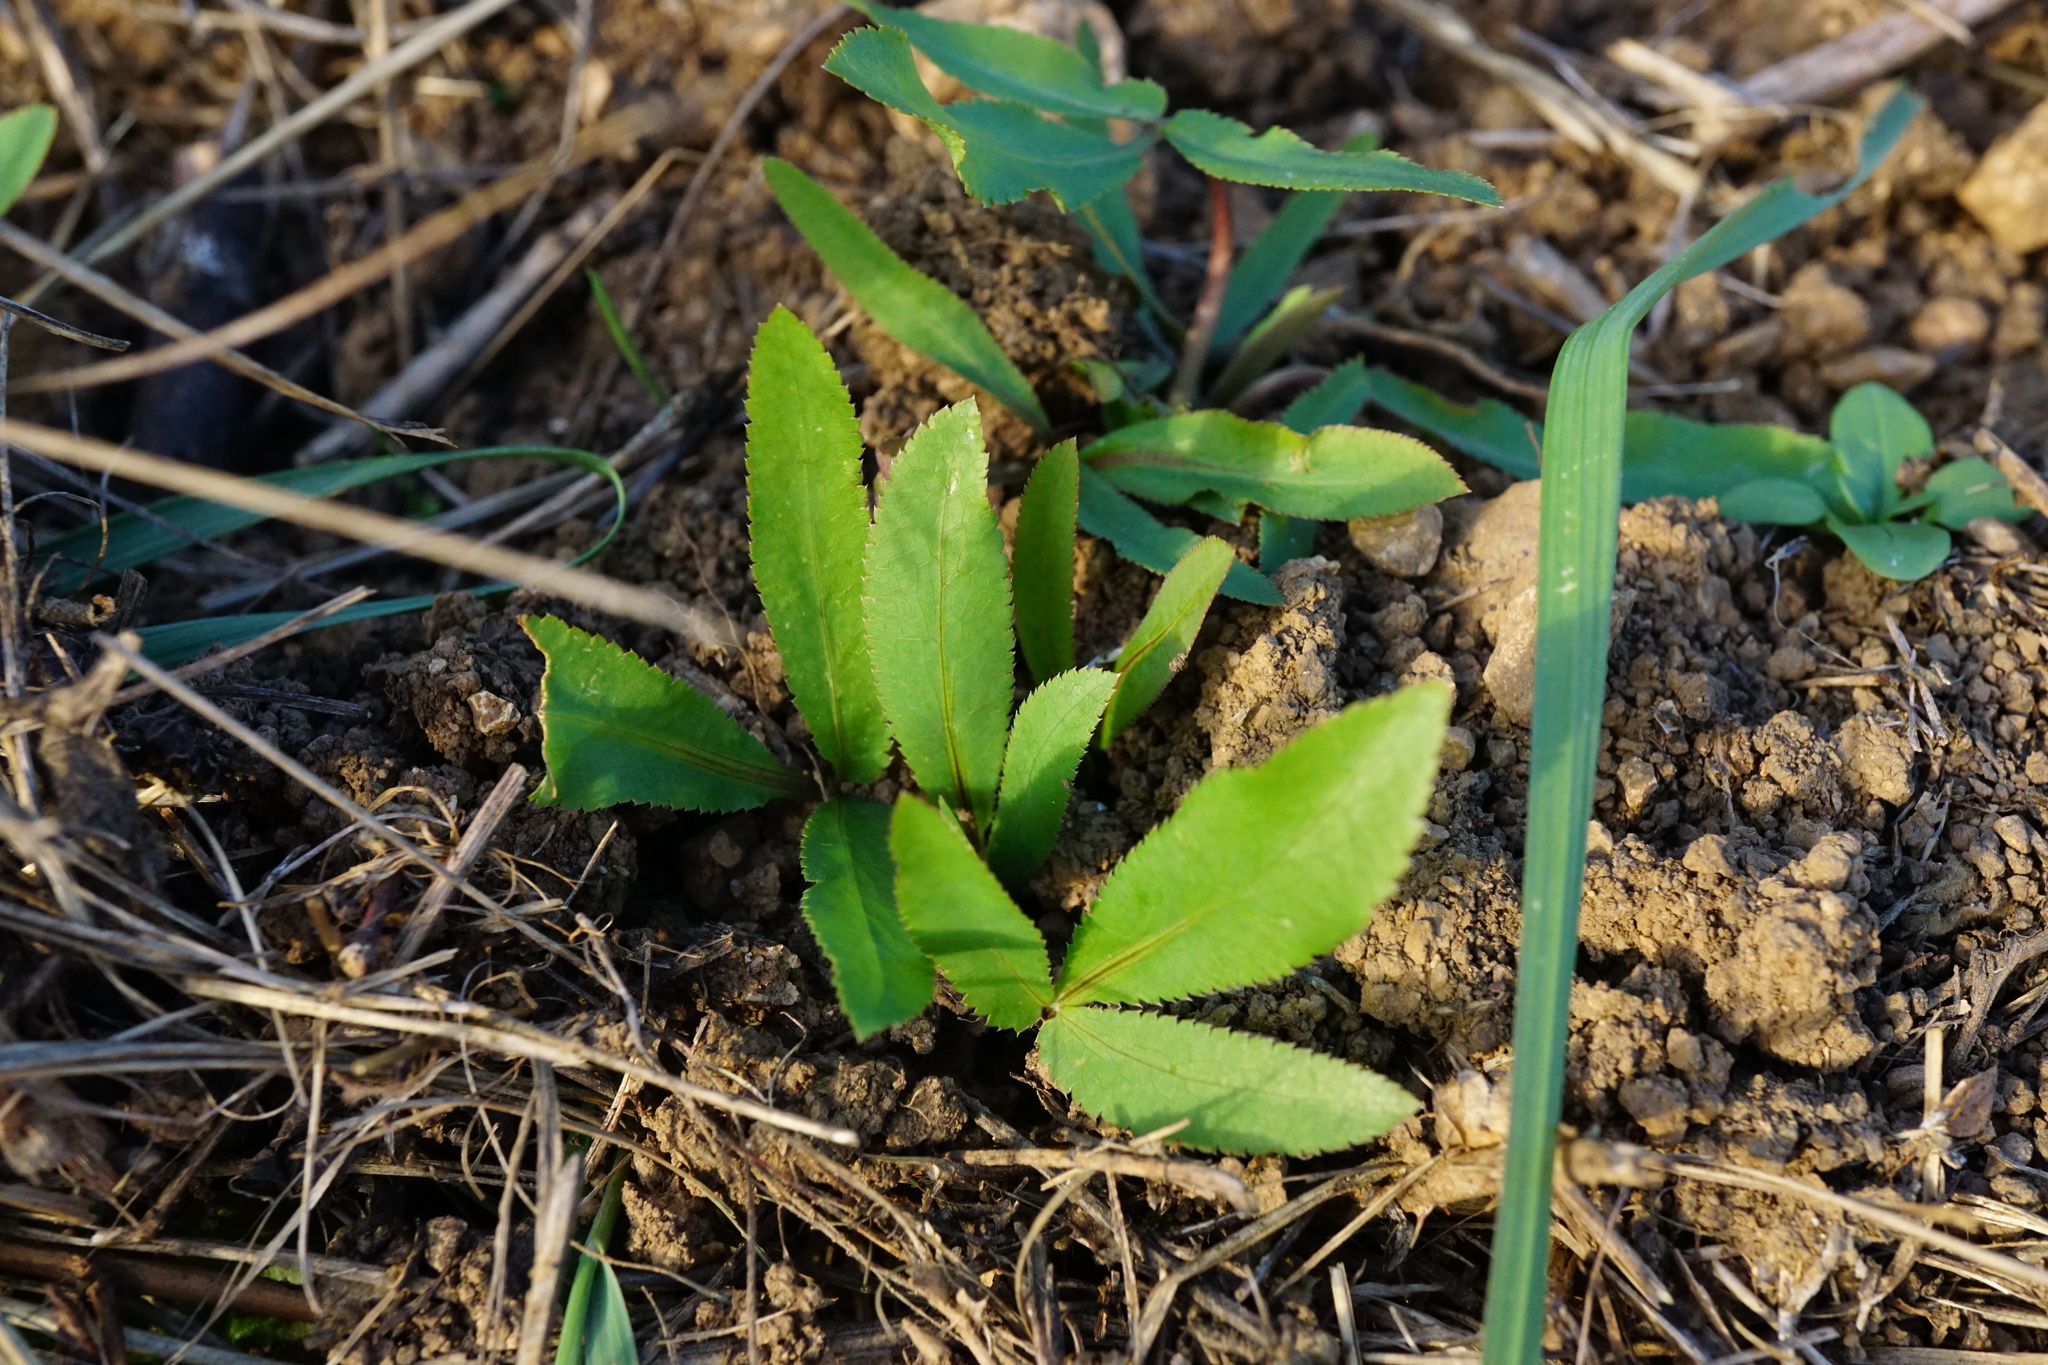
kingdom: Plantae
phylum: Tracheophyta
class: Magnoliopsida
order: Apiales
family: Apiaceae
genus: Falcaria
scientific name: Falcaria vulgaris
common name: Longleaf
